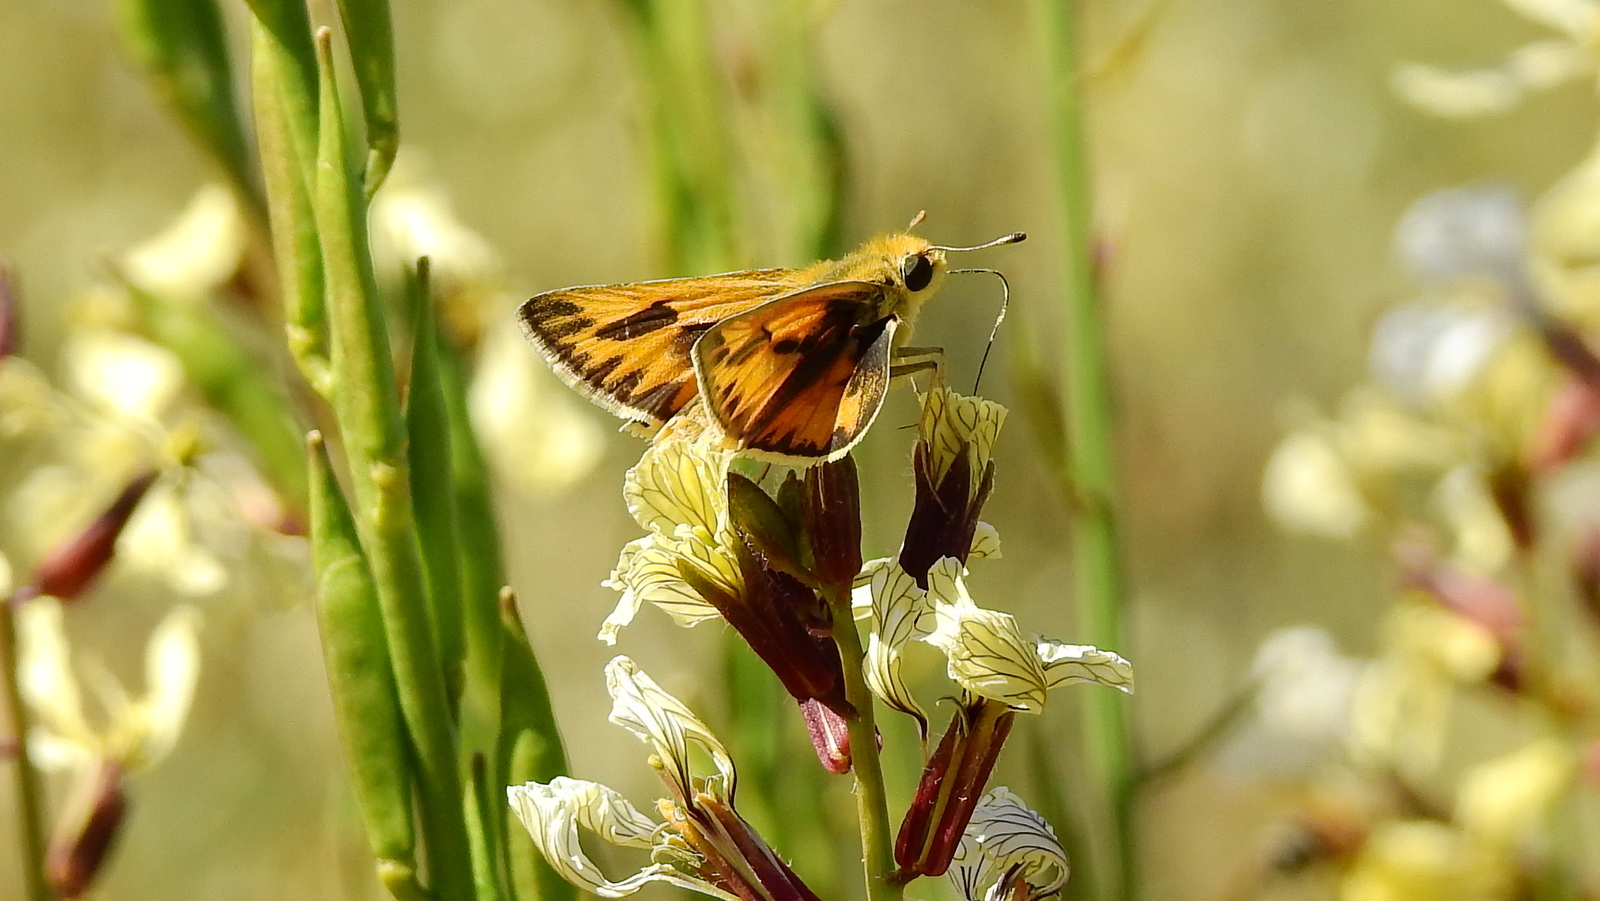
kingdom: Animalia
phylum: Arthropoda
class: Insecta
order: Lepidoptera
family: Hesperiidae
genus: Hylephila
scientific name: Hylephila phyleus
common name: Fiery skipper
